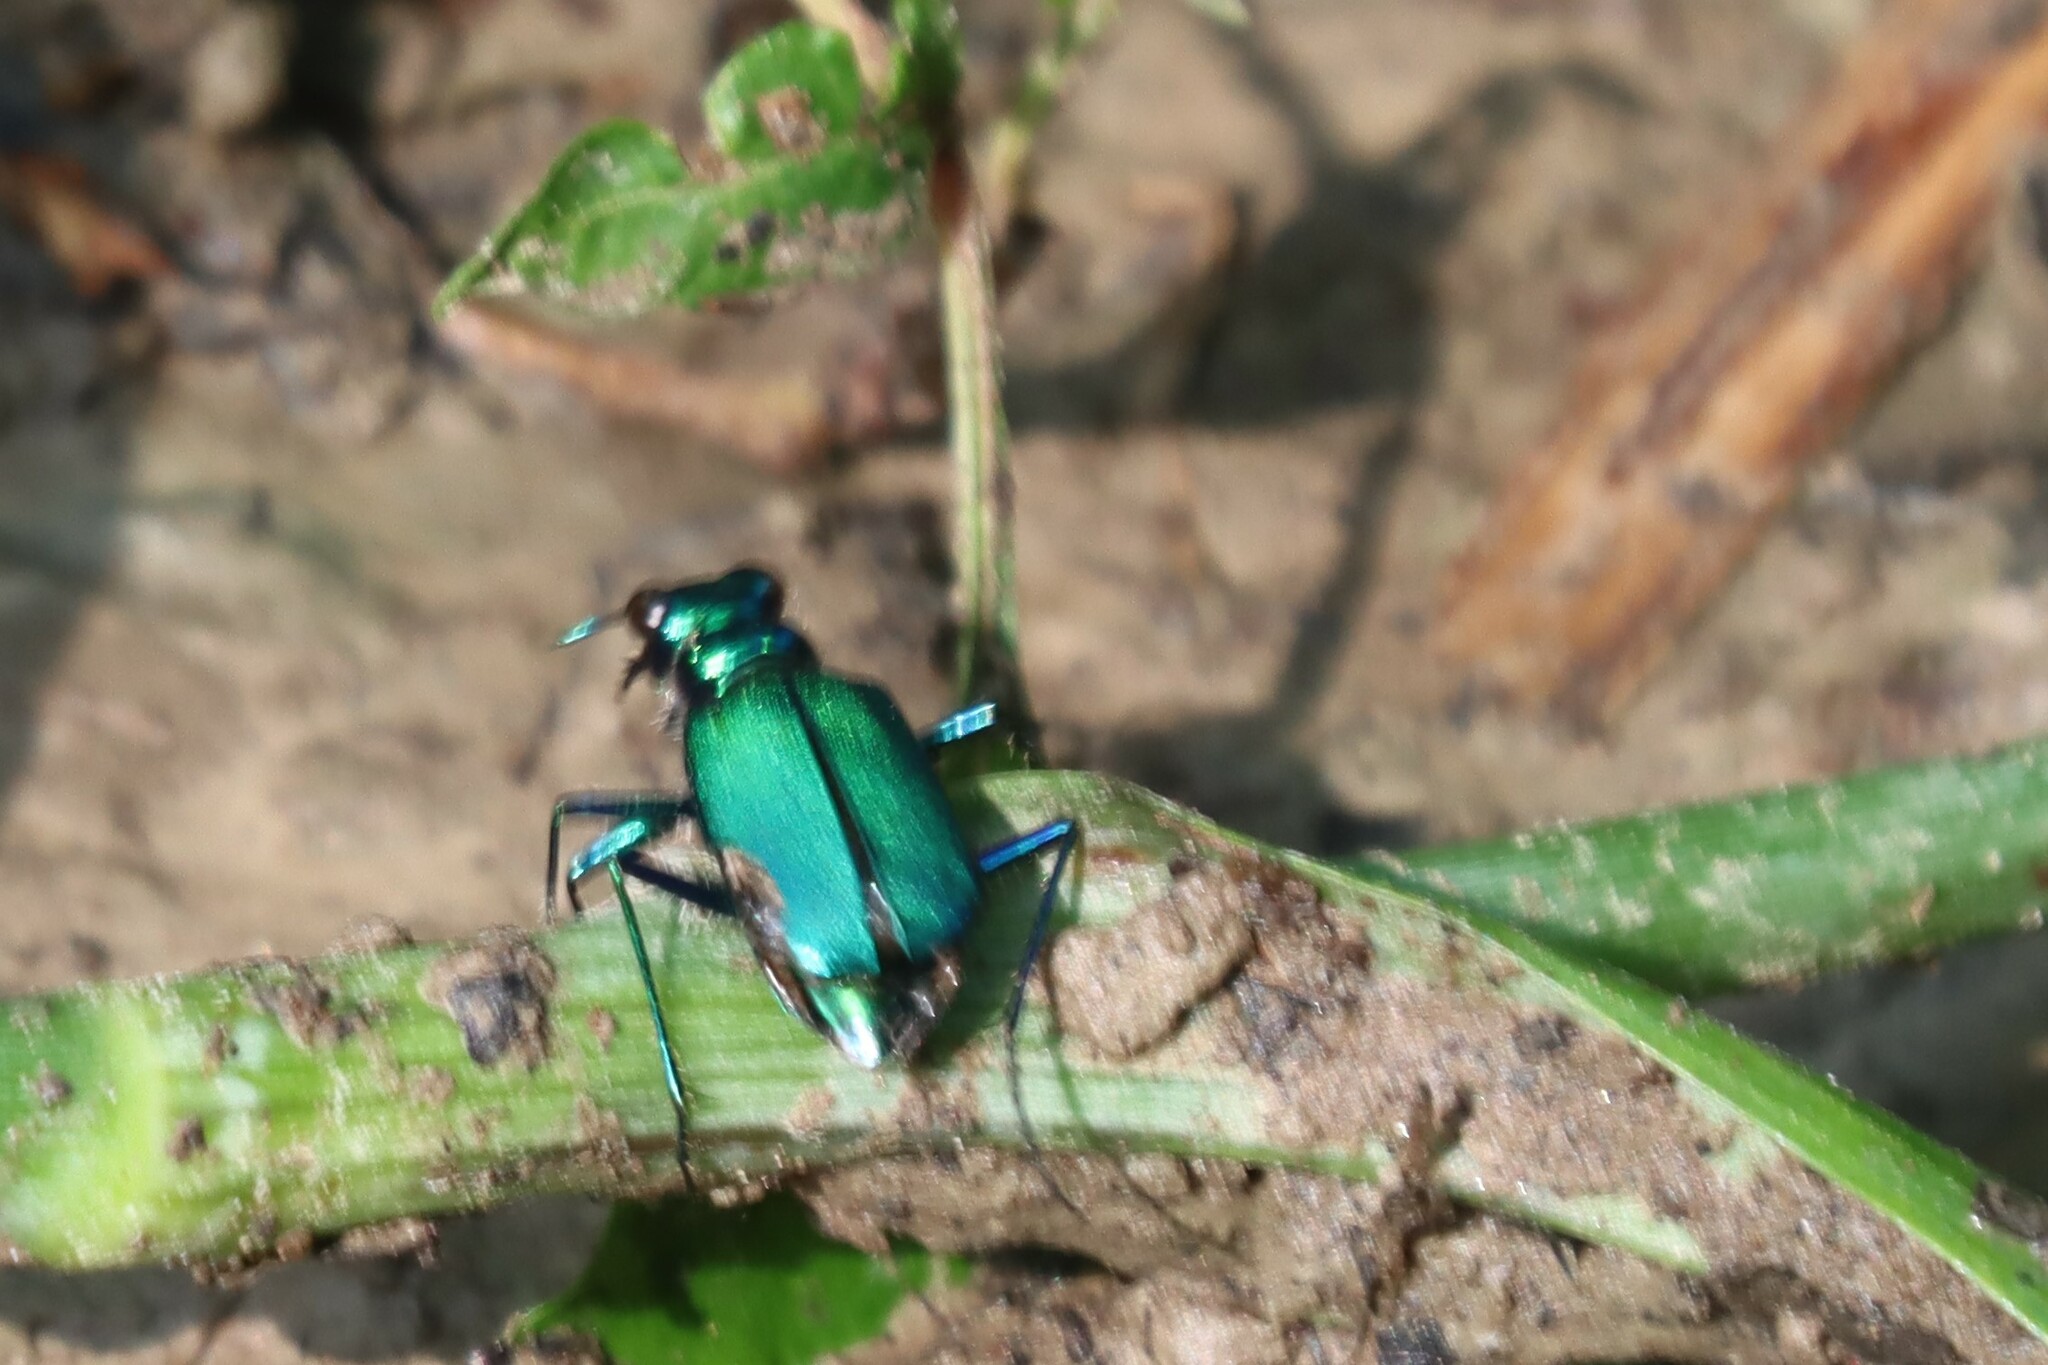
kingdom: Animalia
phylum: Arthropoda
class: Insecta
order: Coleoptera
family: Carabidae
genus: Cicindela
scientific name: Cicindela sexguttata
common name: Six-spotted tiger beetle
